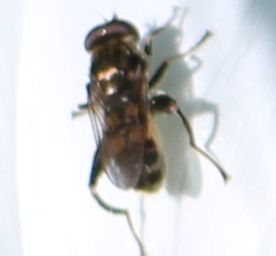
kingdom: Animalia
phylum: Arthropoda
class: Insecta
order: Diptera
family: Syrphidae
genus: Chalcosyrphus
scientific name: Chalcosyrphus nemorum
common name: Dusky-banded forest fly
